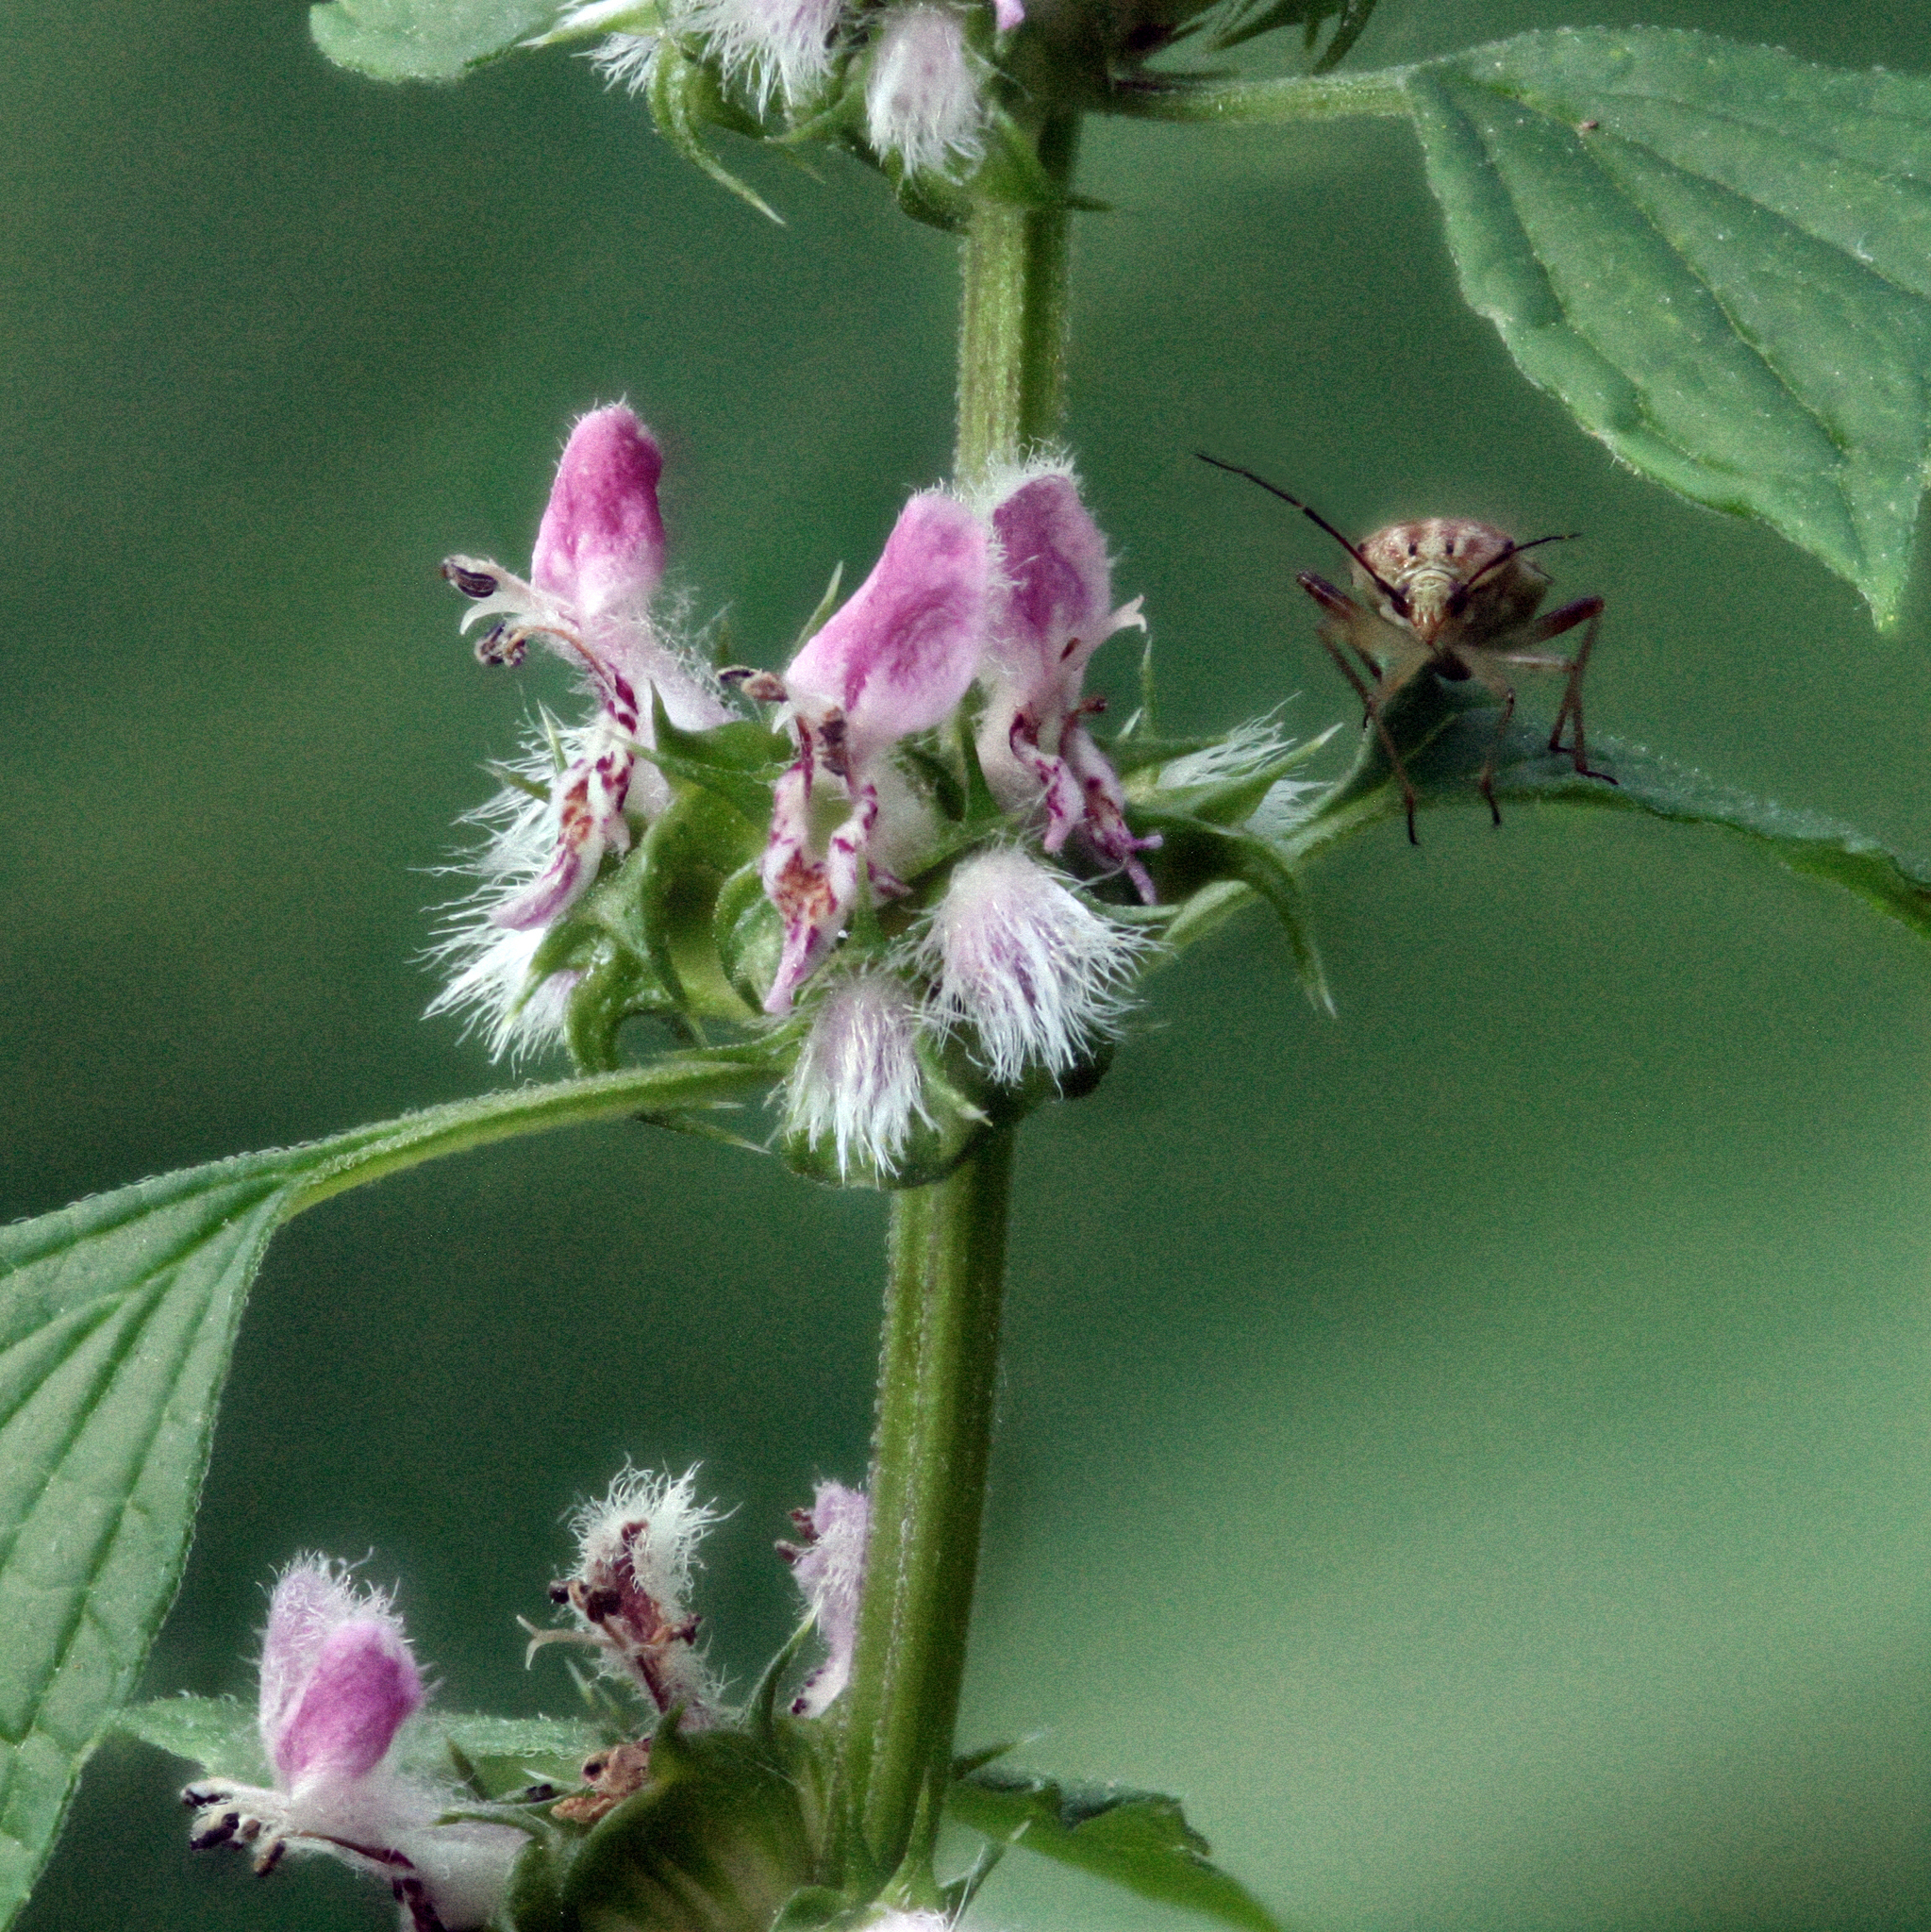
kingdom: Animalia
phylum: Arthropoda
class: Insecta
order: Hemiptera
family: Miridae
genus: Lygus
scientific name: Lygus
